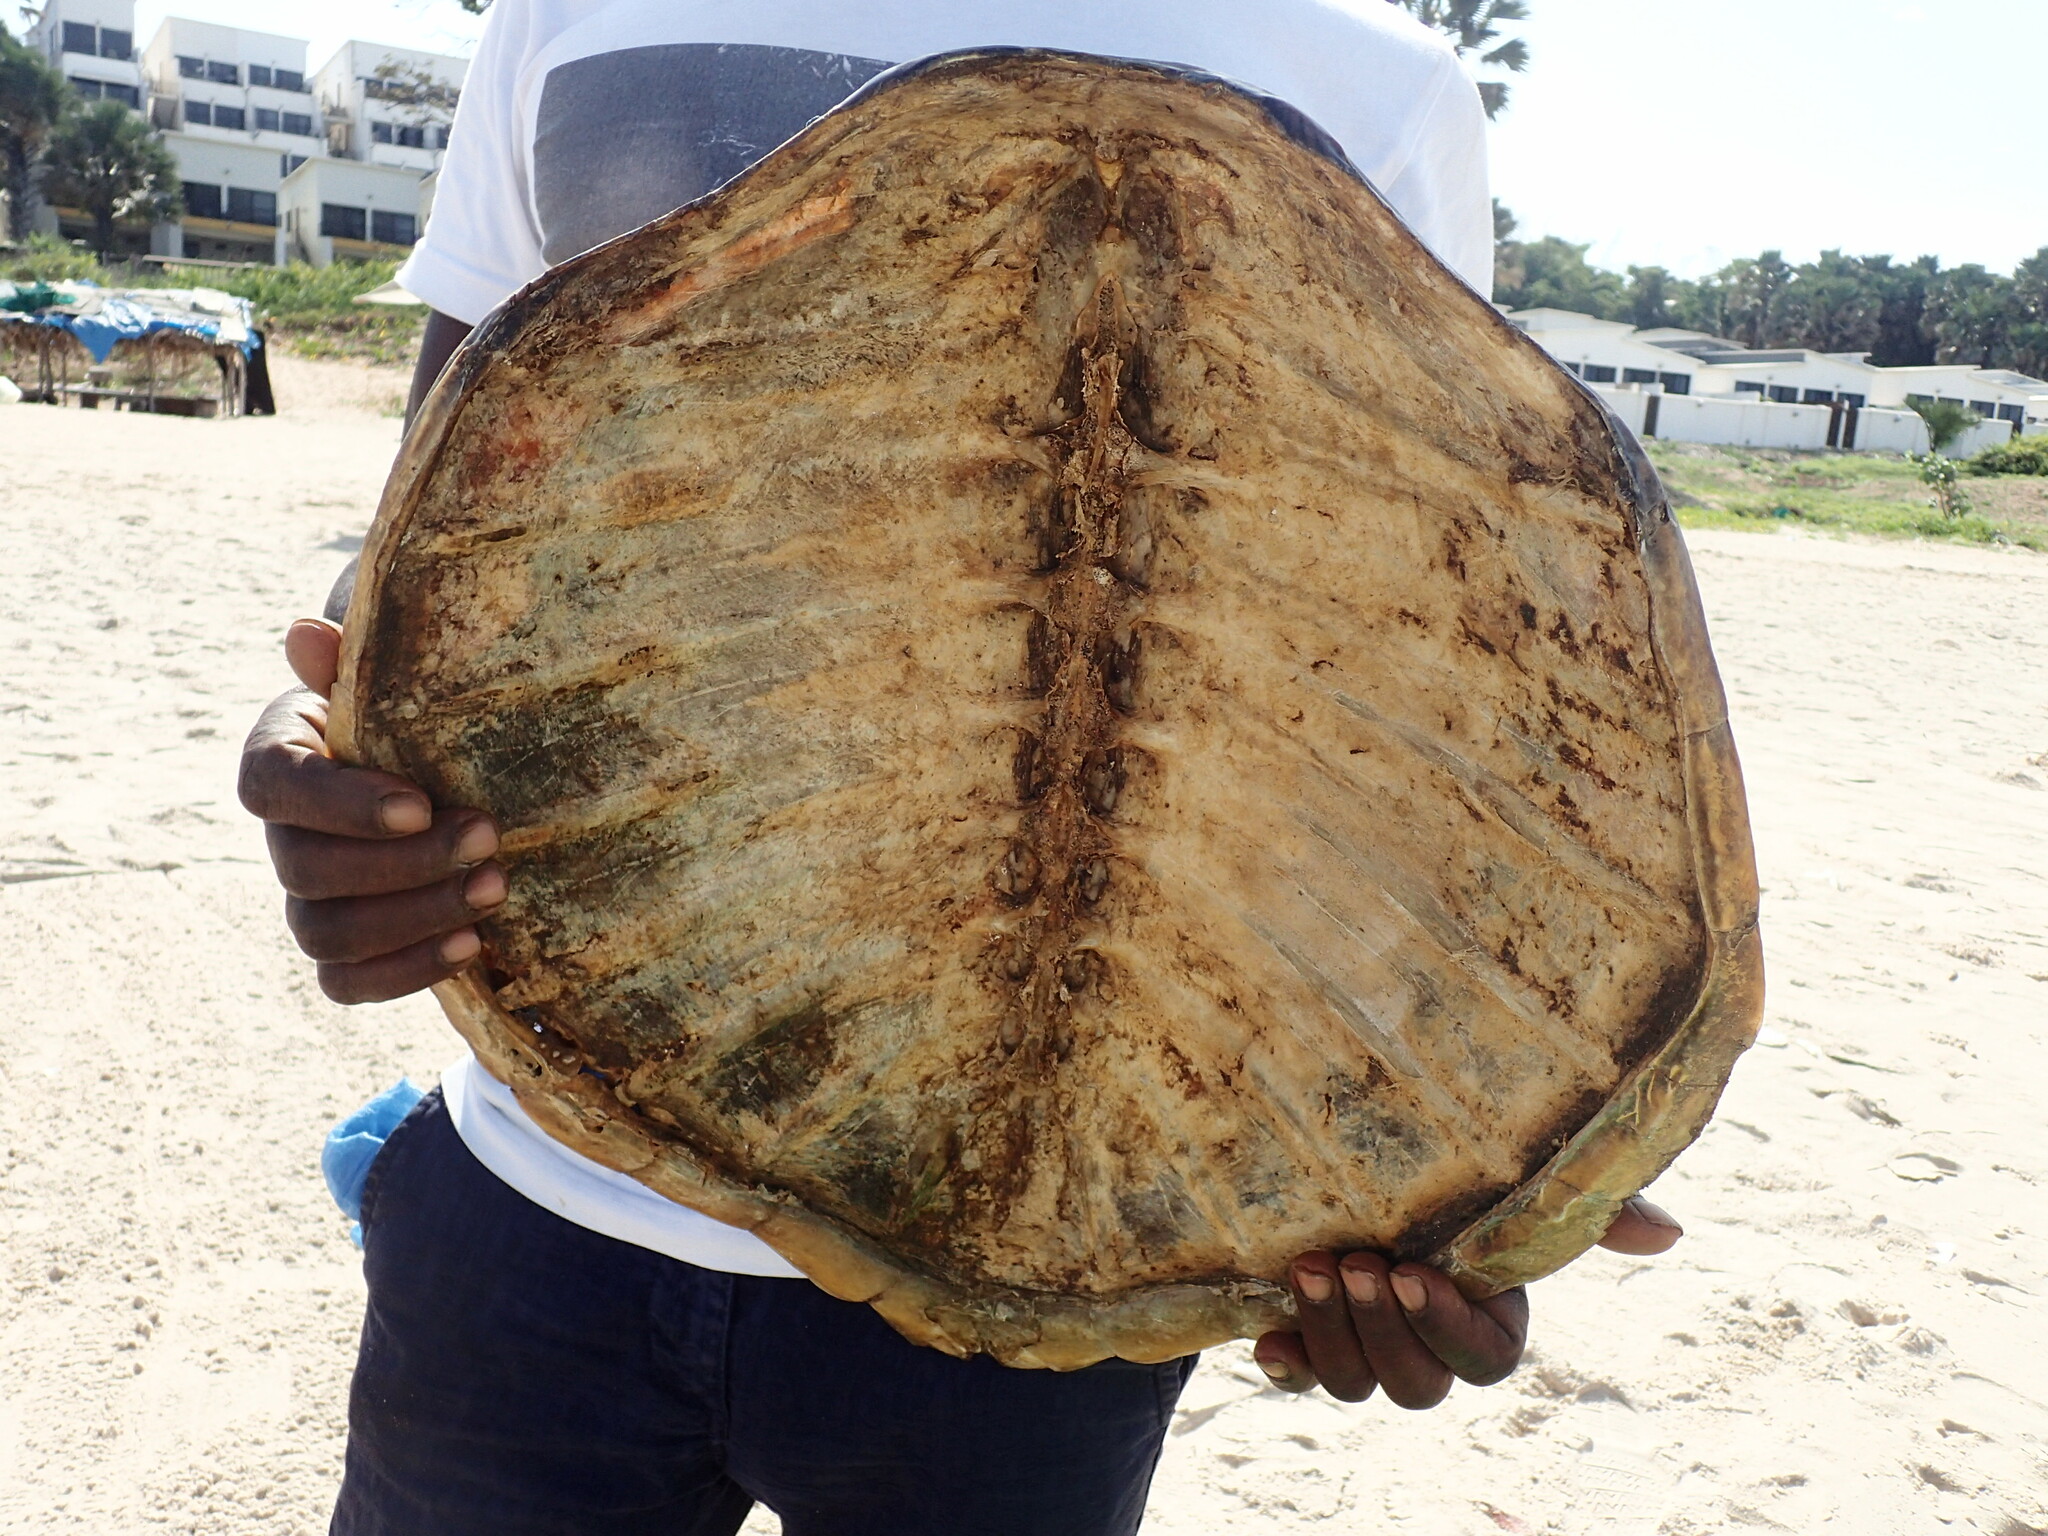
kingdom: Animalia
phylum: Chordata
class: Testudines
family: Cheloniidae
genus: Chelonia
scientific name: Chelonia mydas
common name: Green turtle
